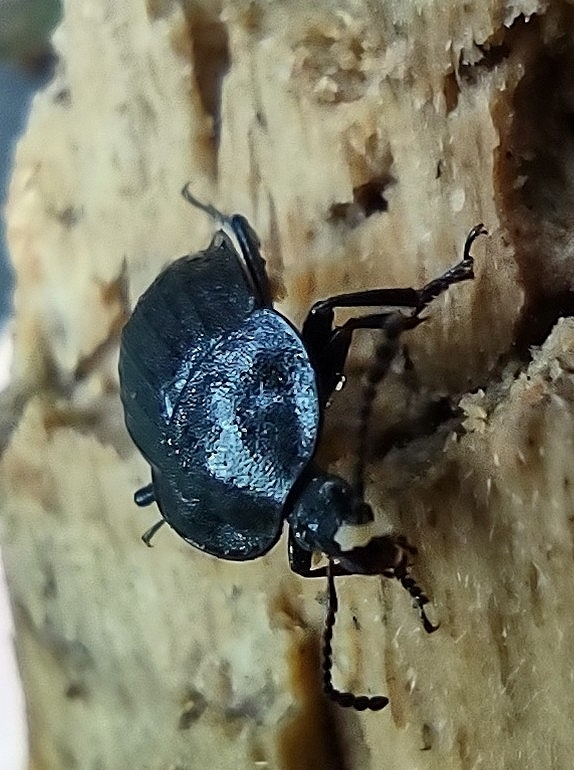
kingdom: Animalia
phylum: Arthropoda
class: Insecta
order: Coleoptera
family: Staphylinidae
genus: Silpha
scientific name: Silpha atrata
